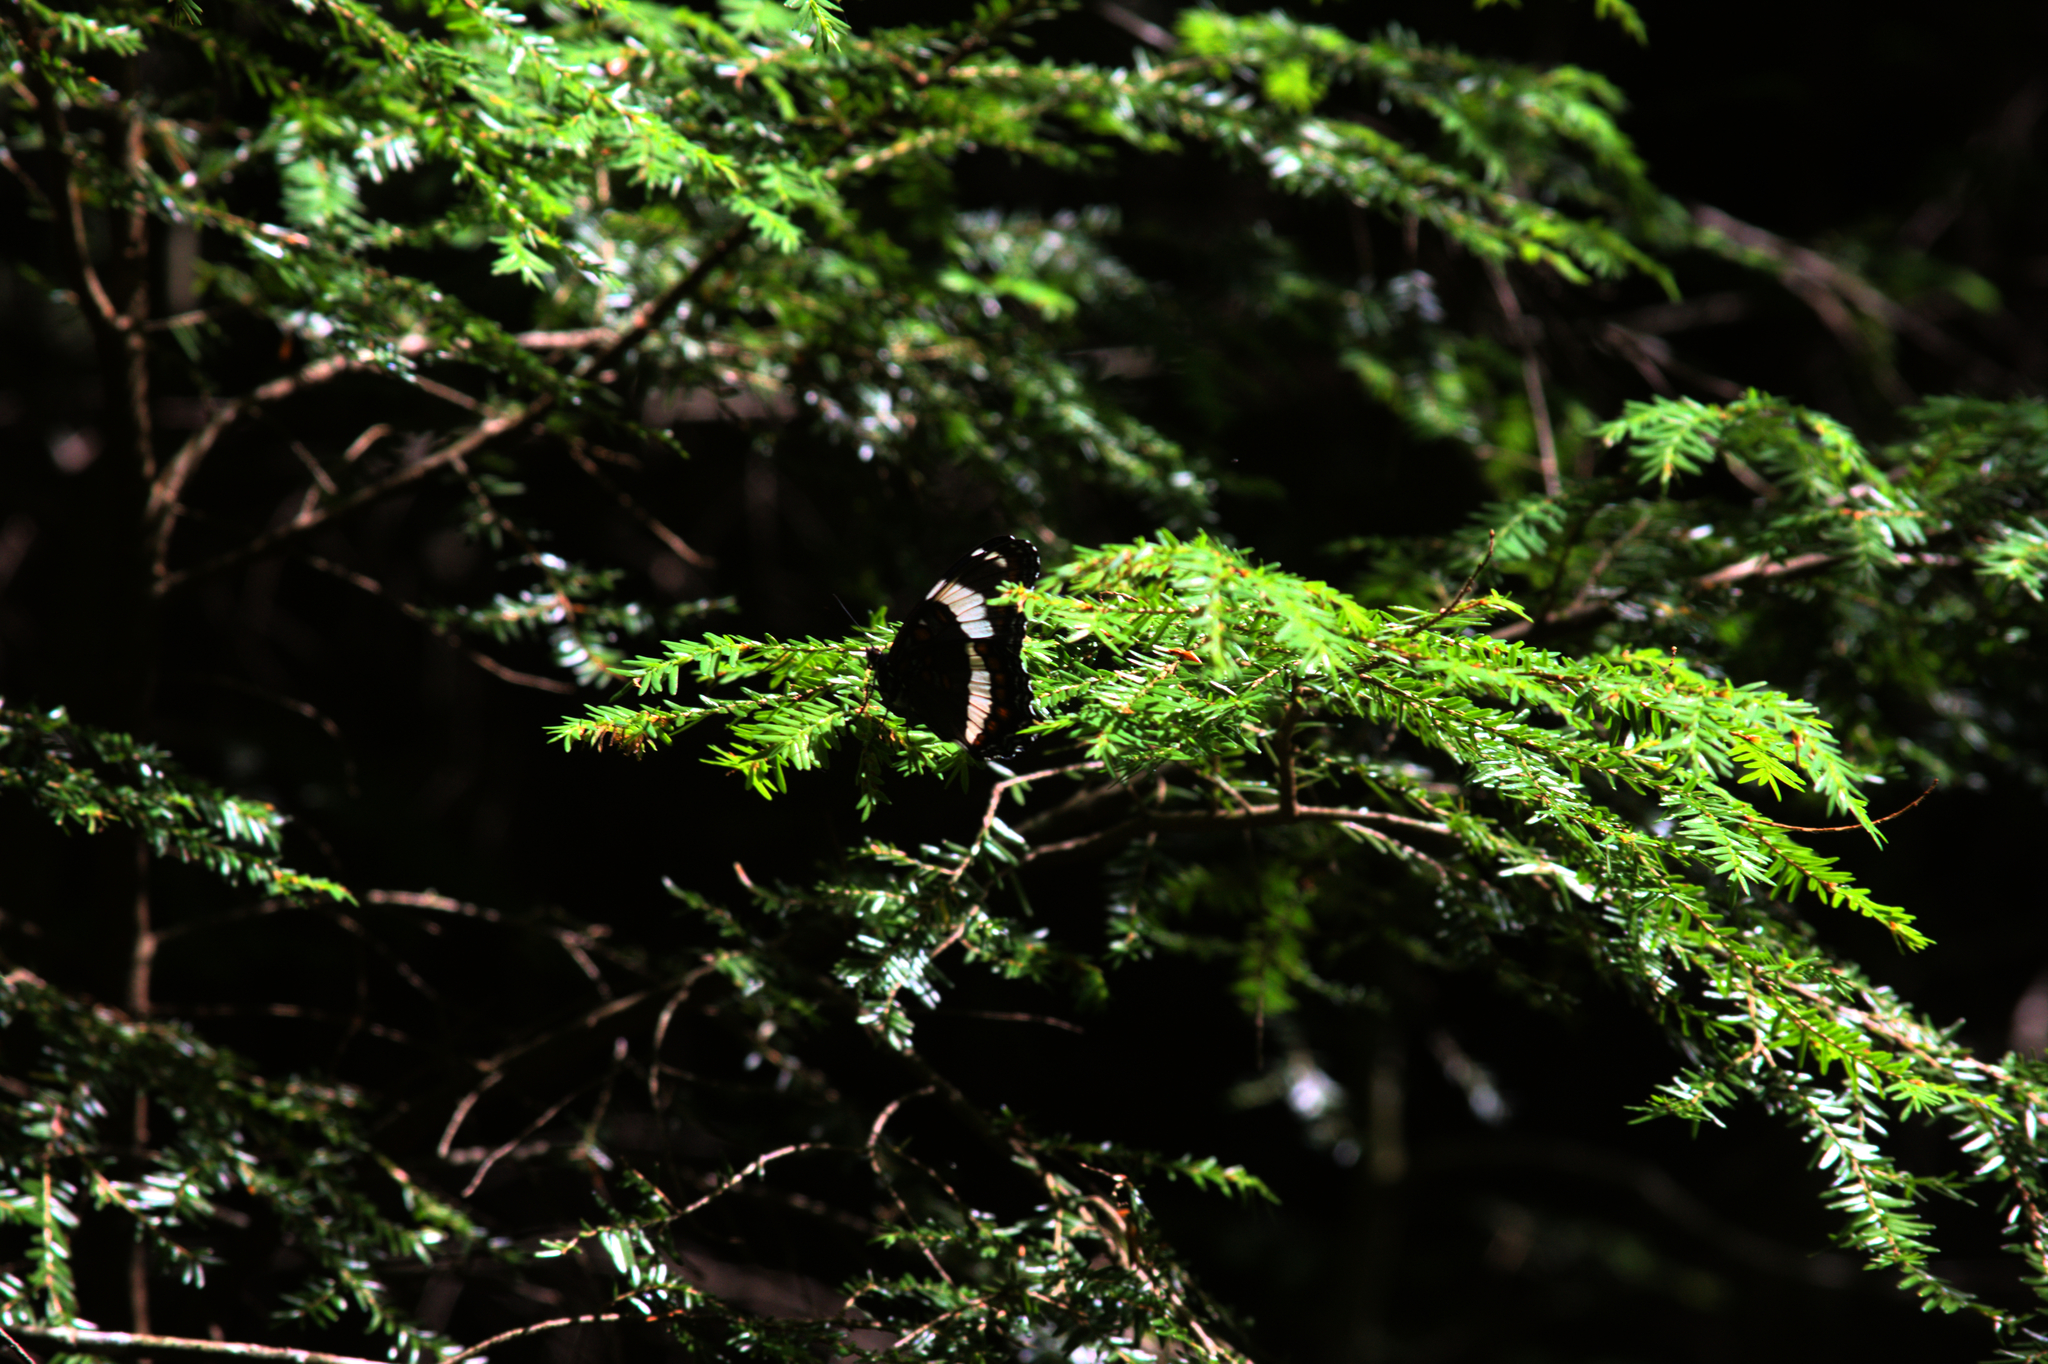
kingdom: Animalia
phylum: Arthropoda
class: Insecta
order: Lepidoptera
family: Nymphalidae
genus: Limenitis
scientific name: Limenitis arthemis
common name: Red-spotted admiral
